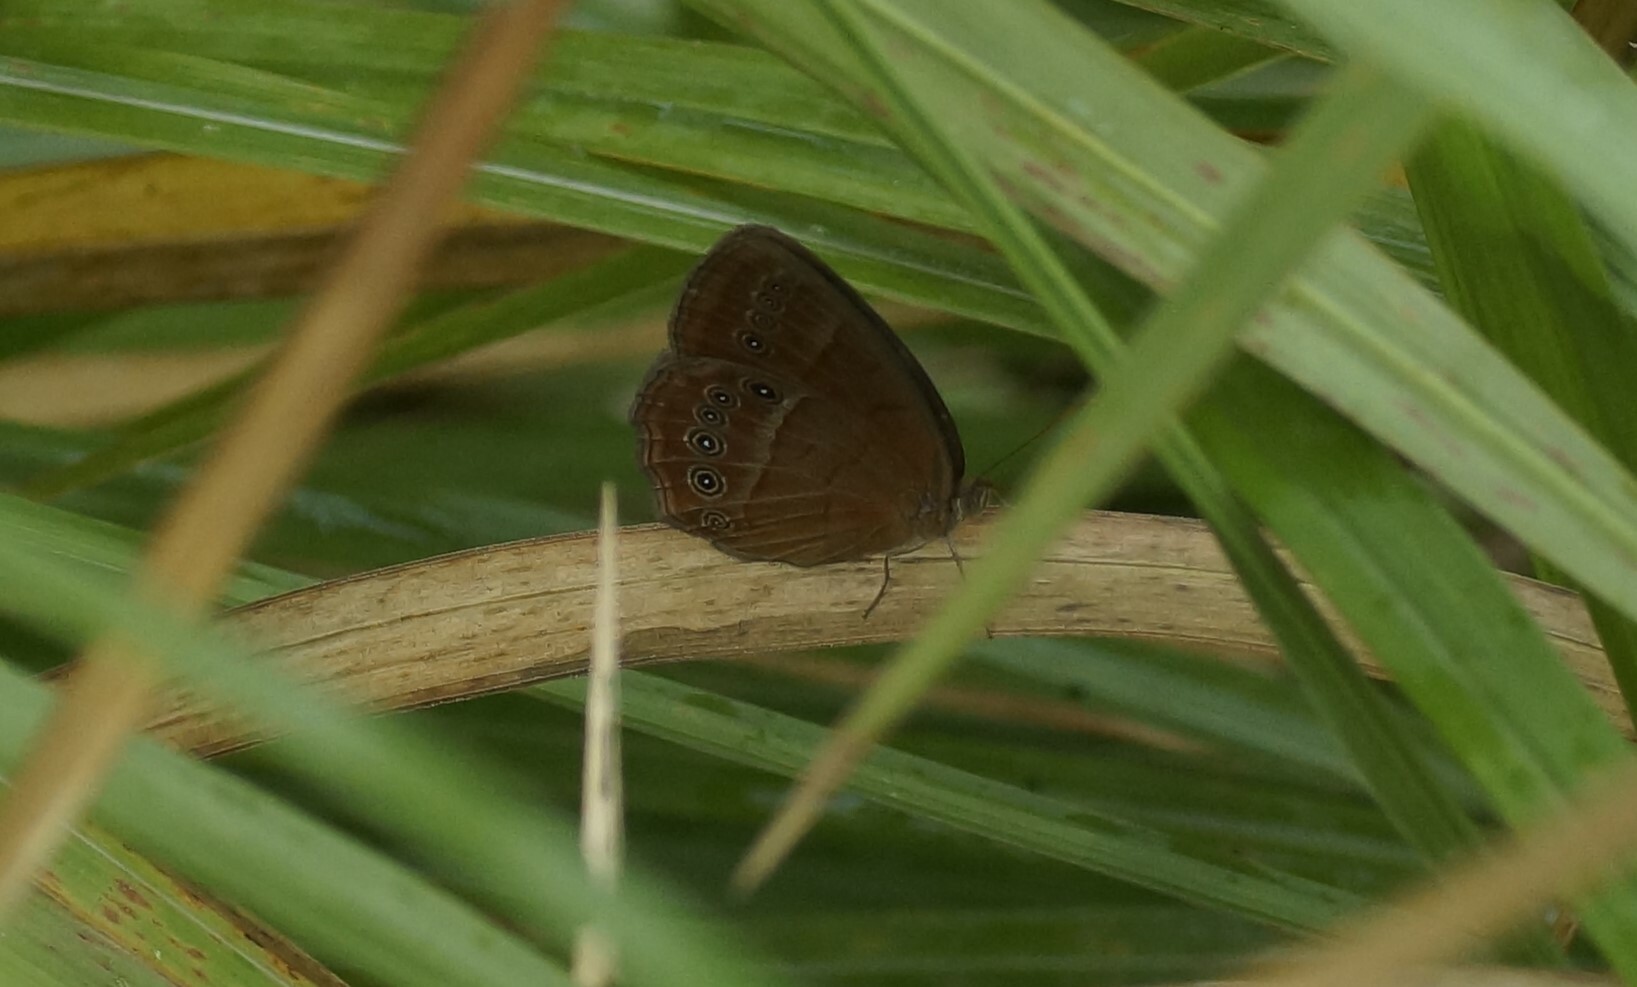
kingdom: Animalia
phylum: Arthropoda
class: Insecta
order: Lepidoptera
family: Nymphalidae
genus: Mycalesis
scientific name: Mycalesis perseus
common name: Dingy bushbrown
